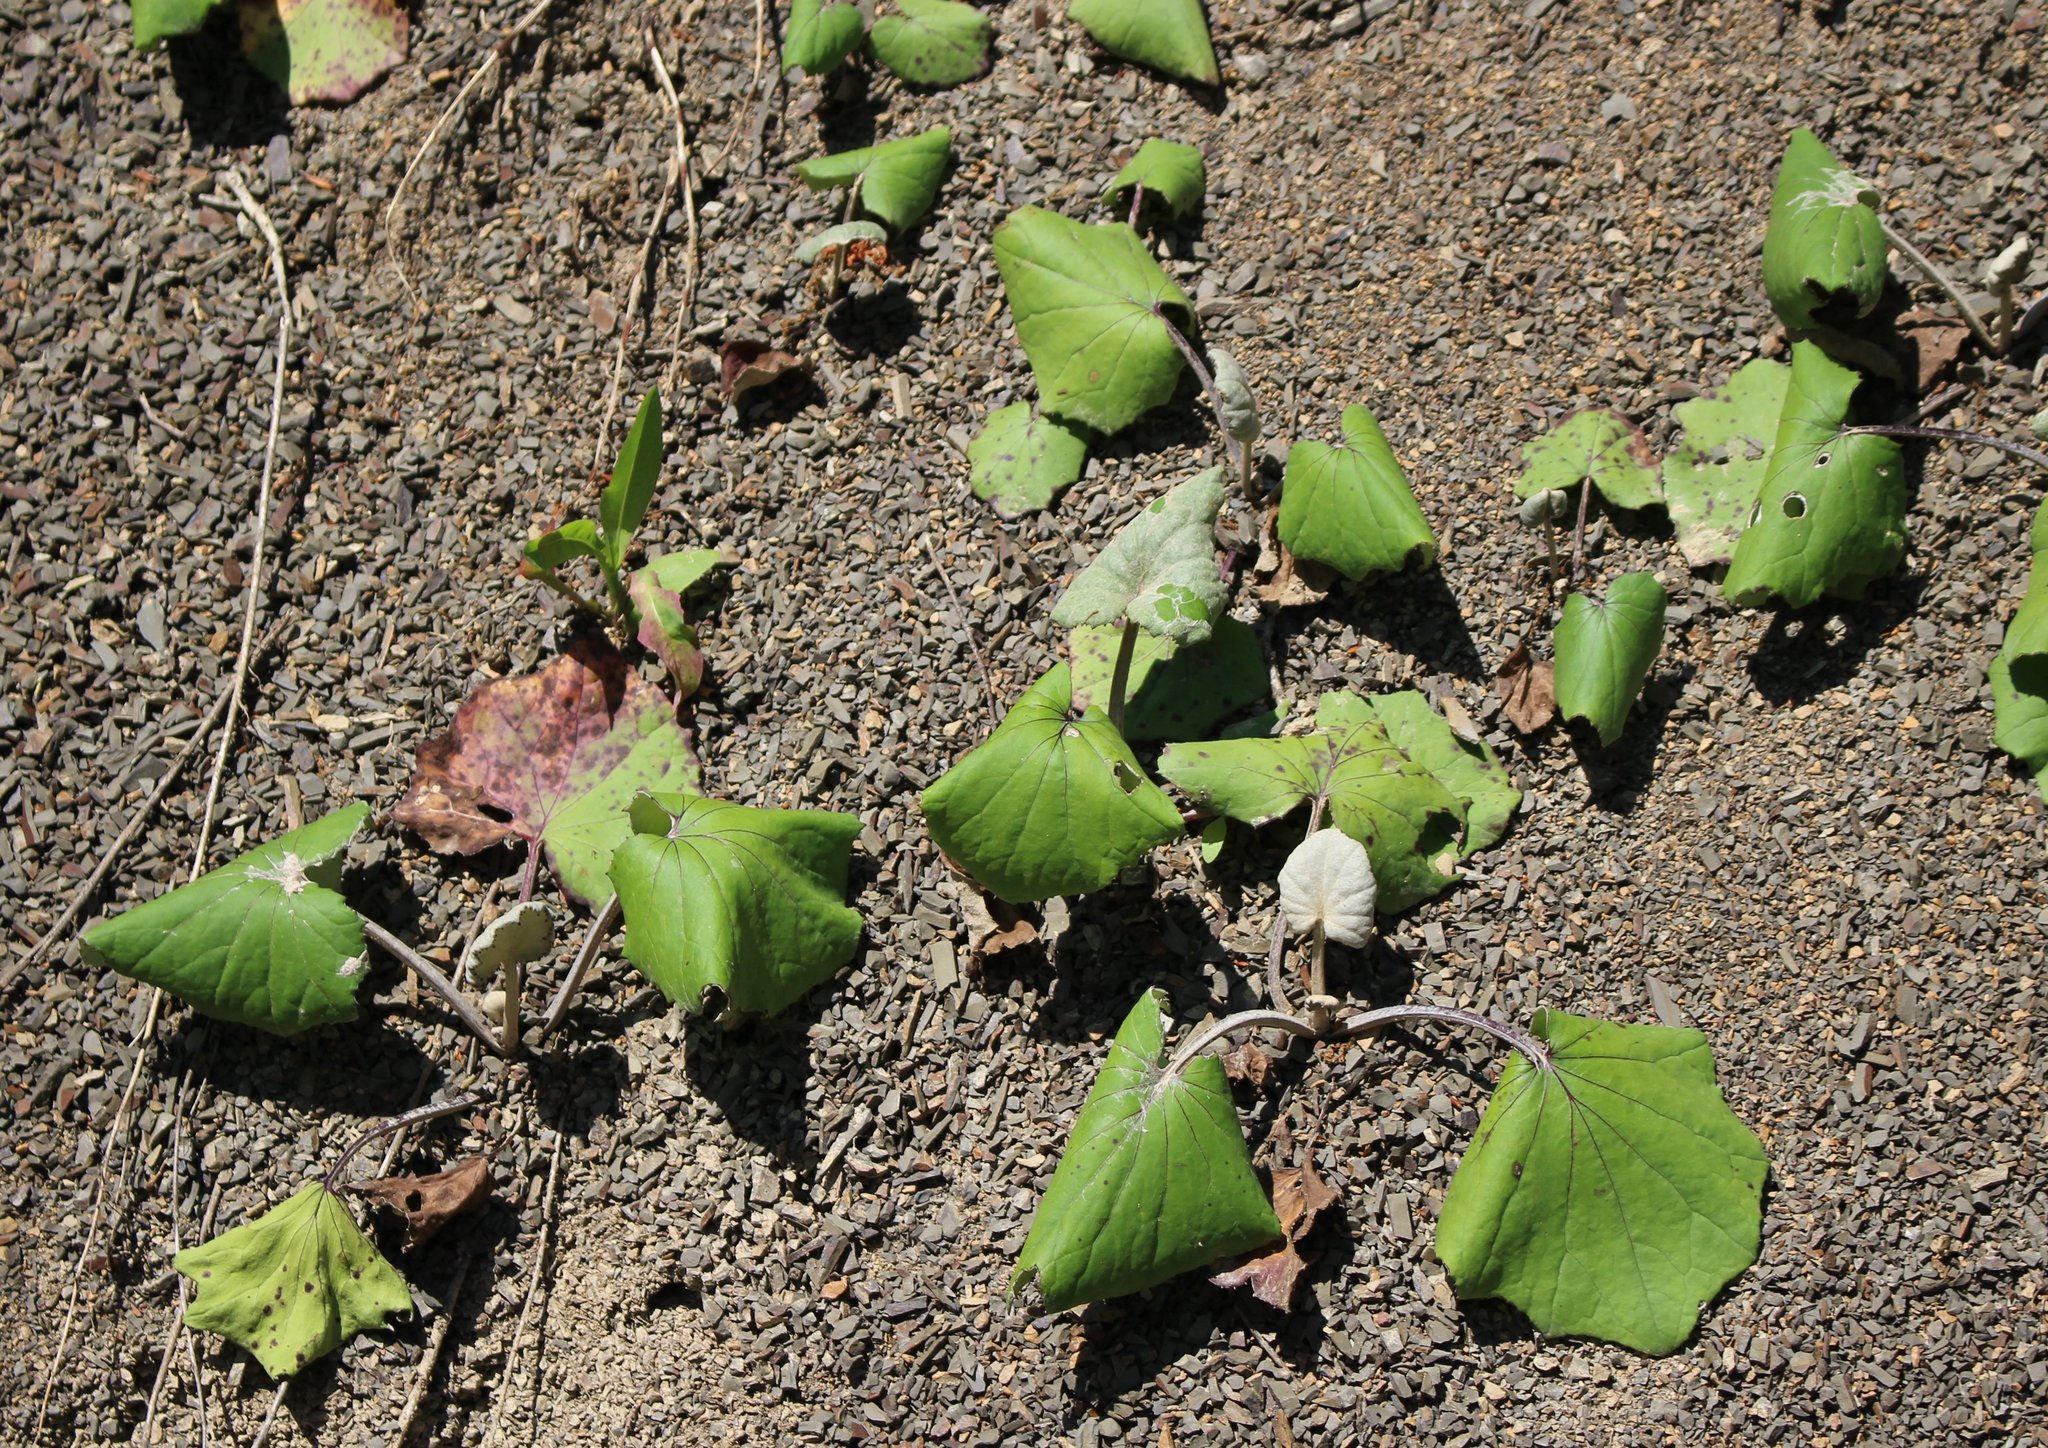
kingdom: Plantae
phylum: Tracheophyta
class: Magnoliopsida
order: Asterales
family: Asteraceae
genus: Tussilago
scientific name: Tussilago farfara
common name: Coltsfoot
